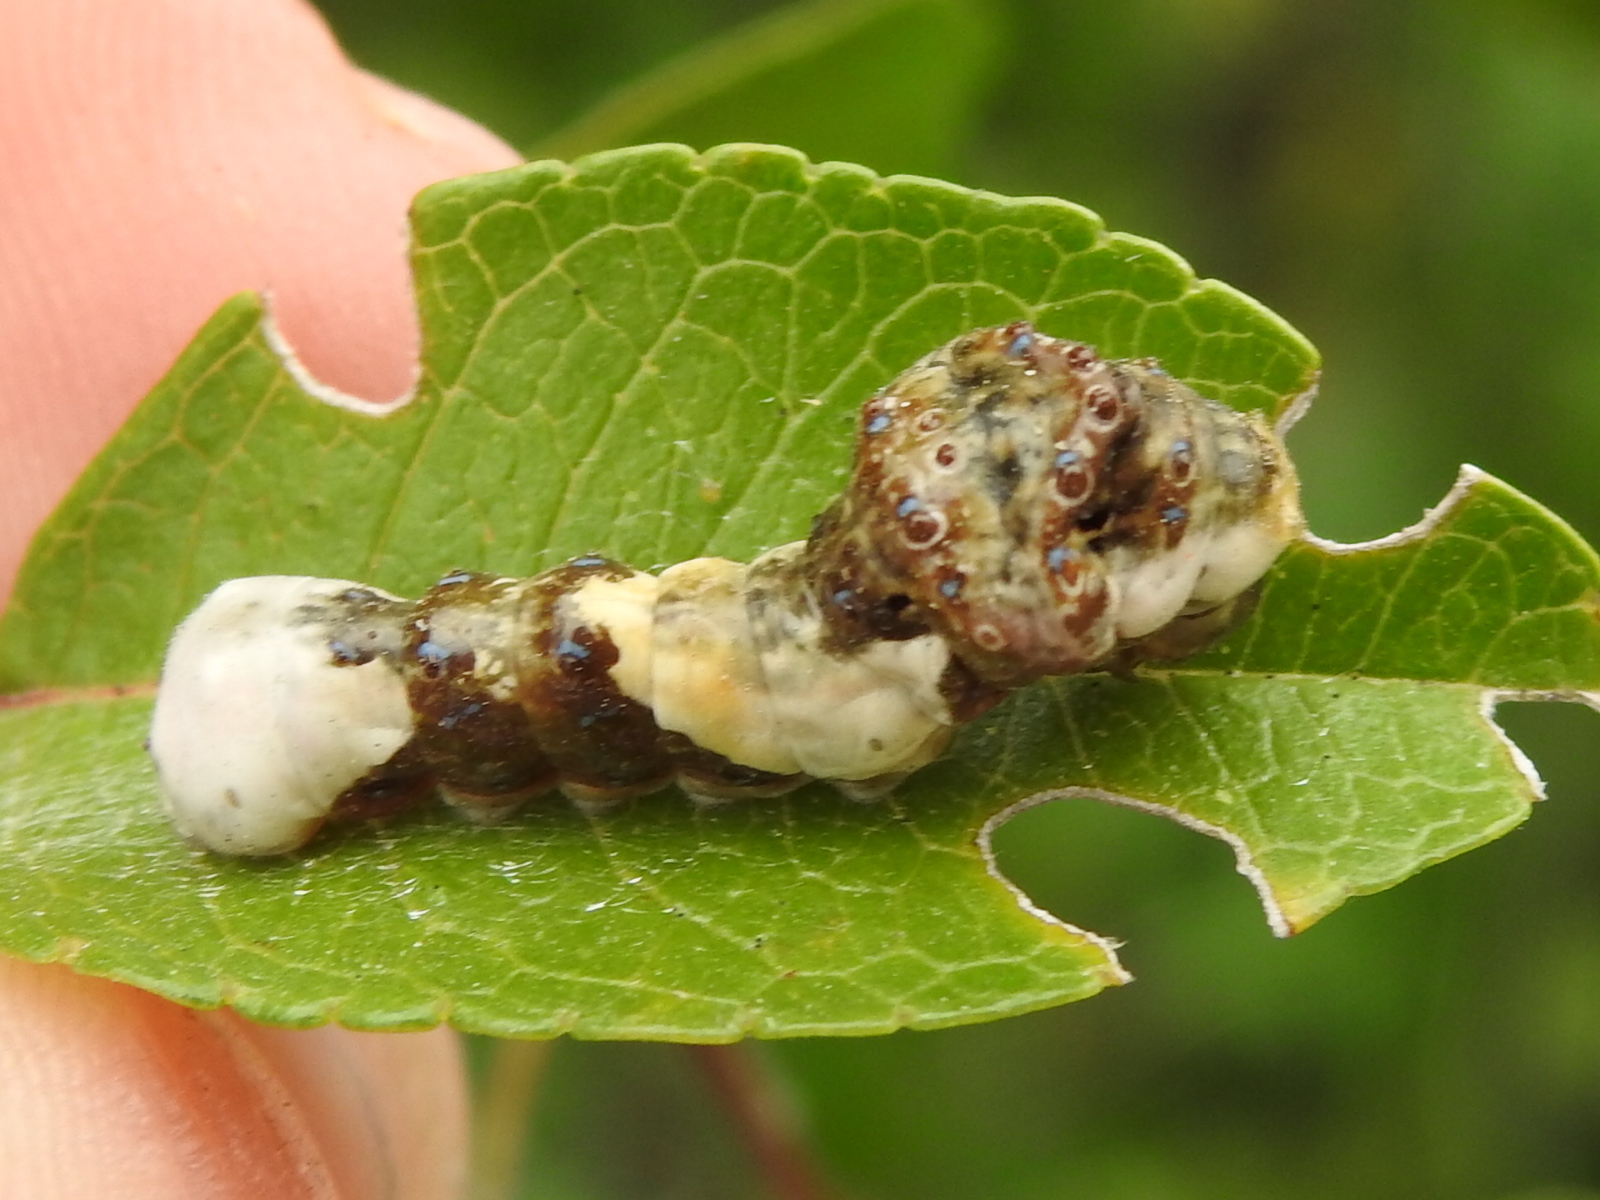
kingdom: Animalia
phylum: Arthropoda
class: Insecta
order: Lepidoptera
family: Papilionidae
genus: Papilio
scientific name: Papilio cresphontes
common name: Giant swallowtail
